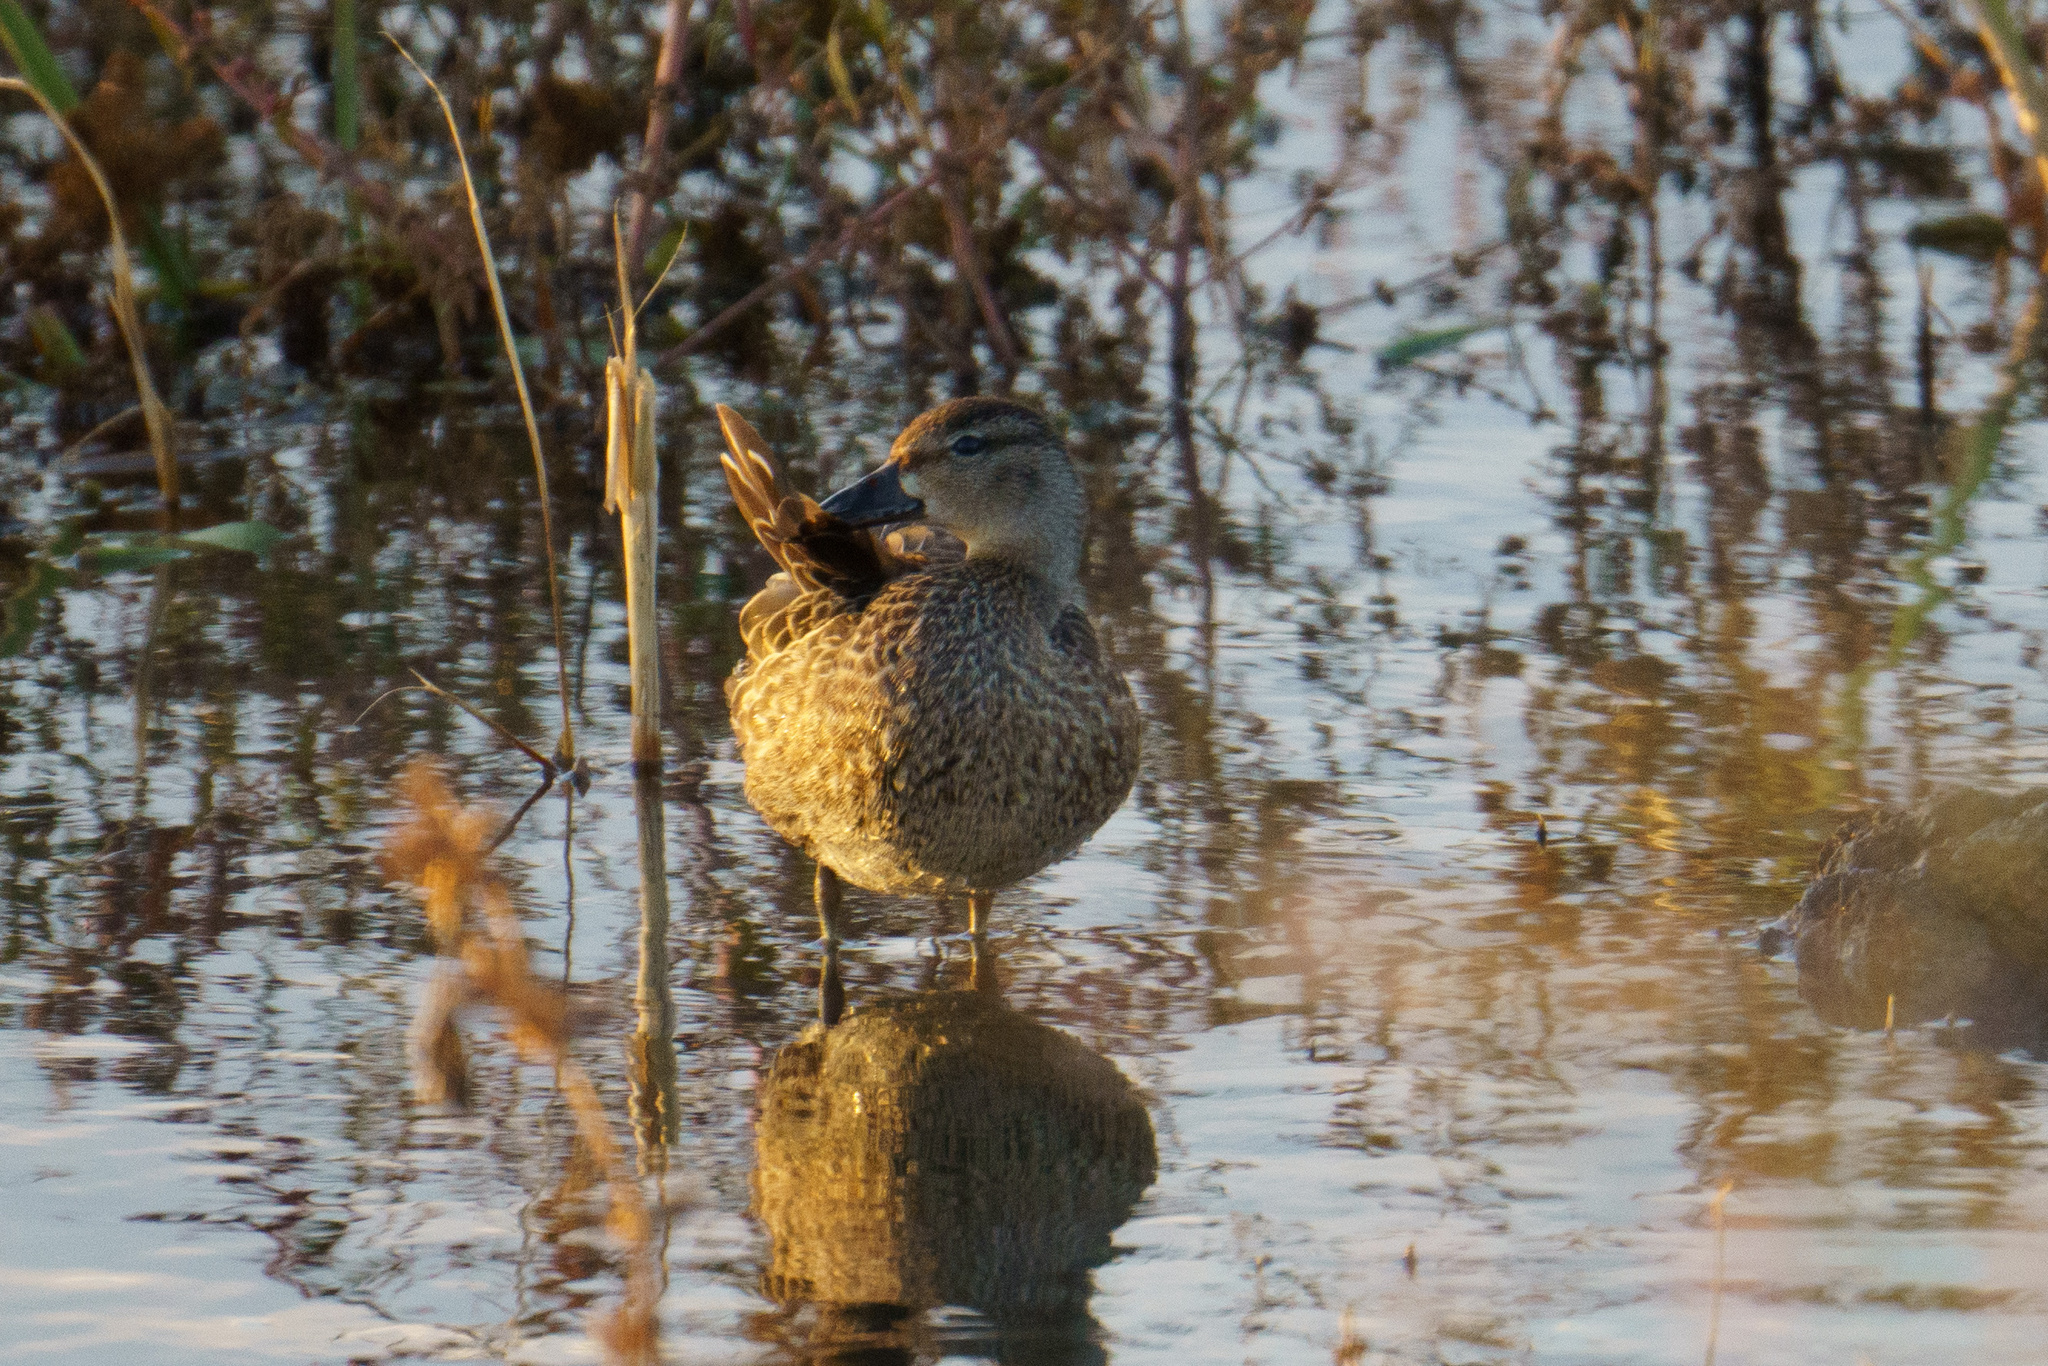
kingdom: Animalia
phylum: Chordata
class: Aves
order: Anseriformes
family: Anatidae
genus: Spatula
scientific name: Spatula discors
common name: Blue-winged teal
